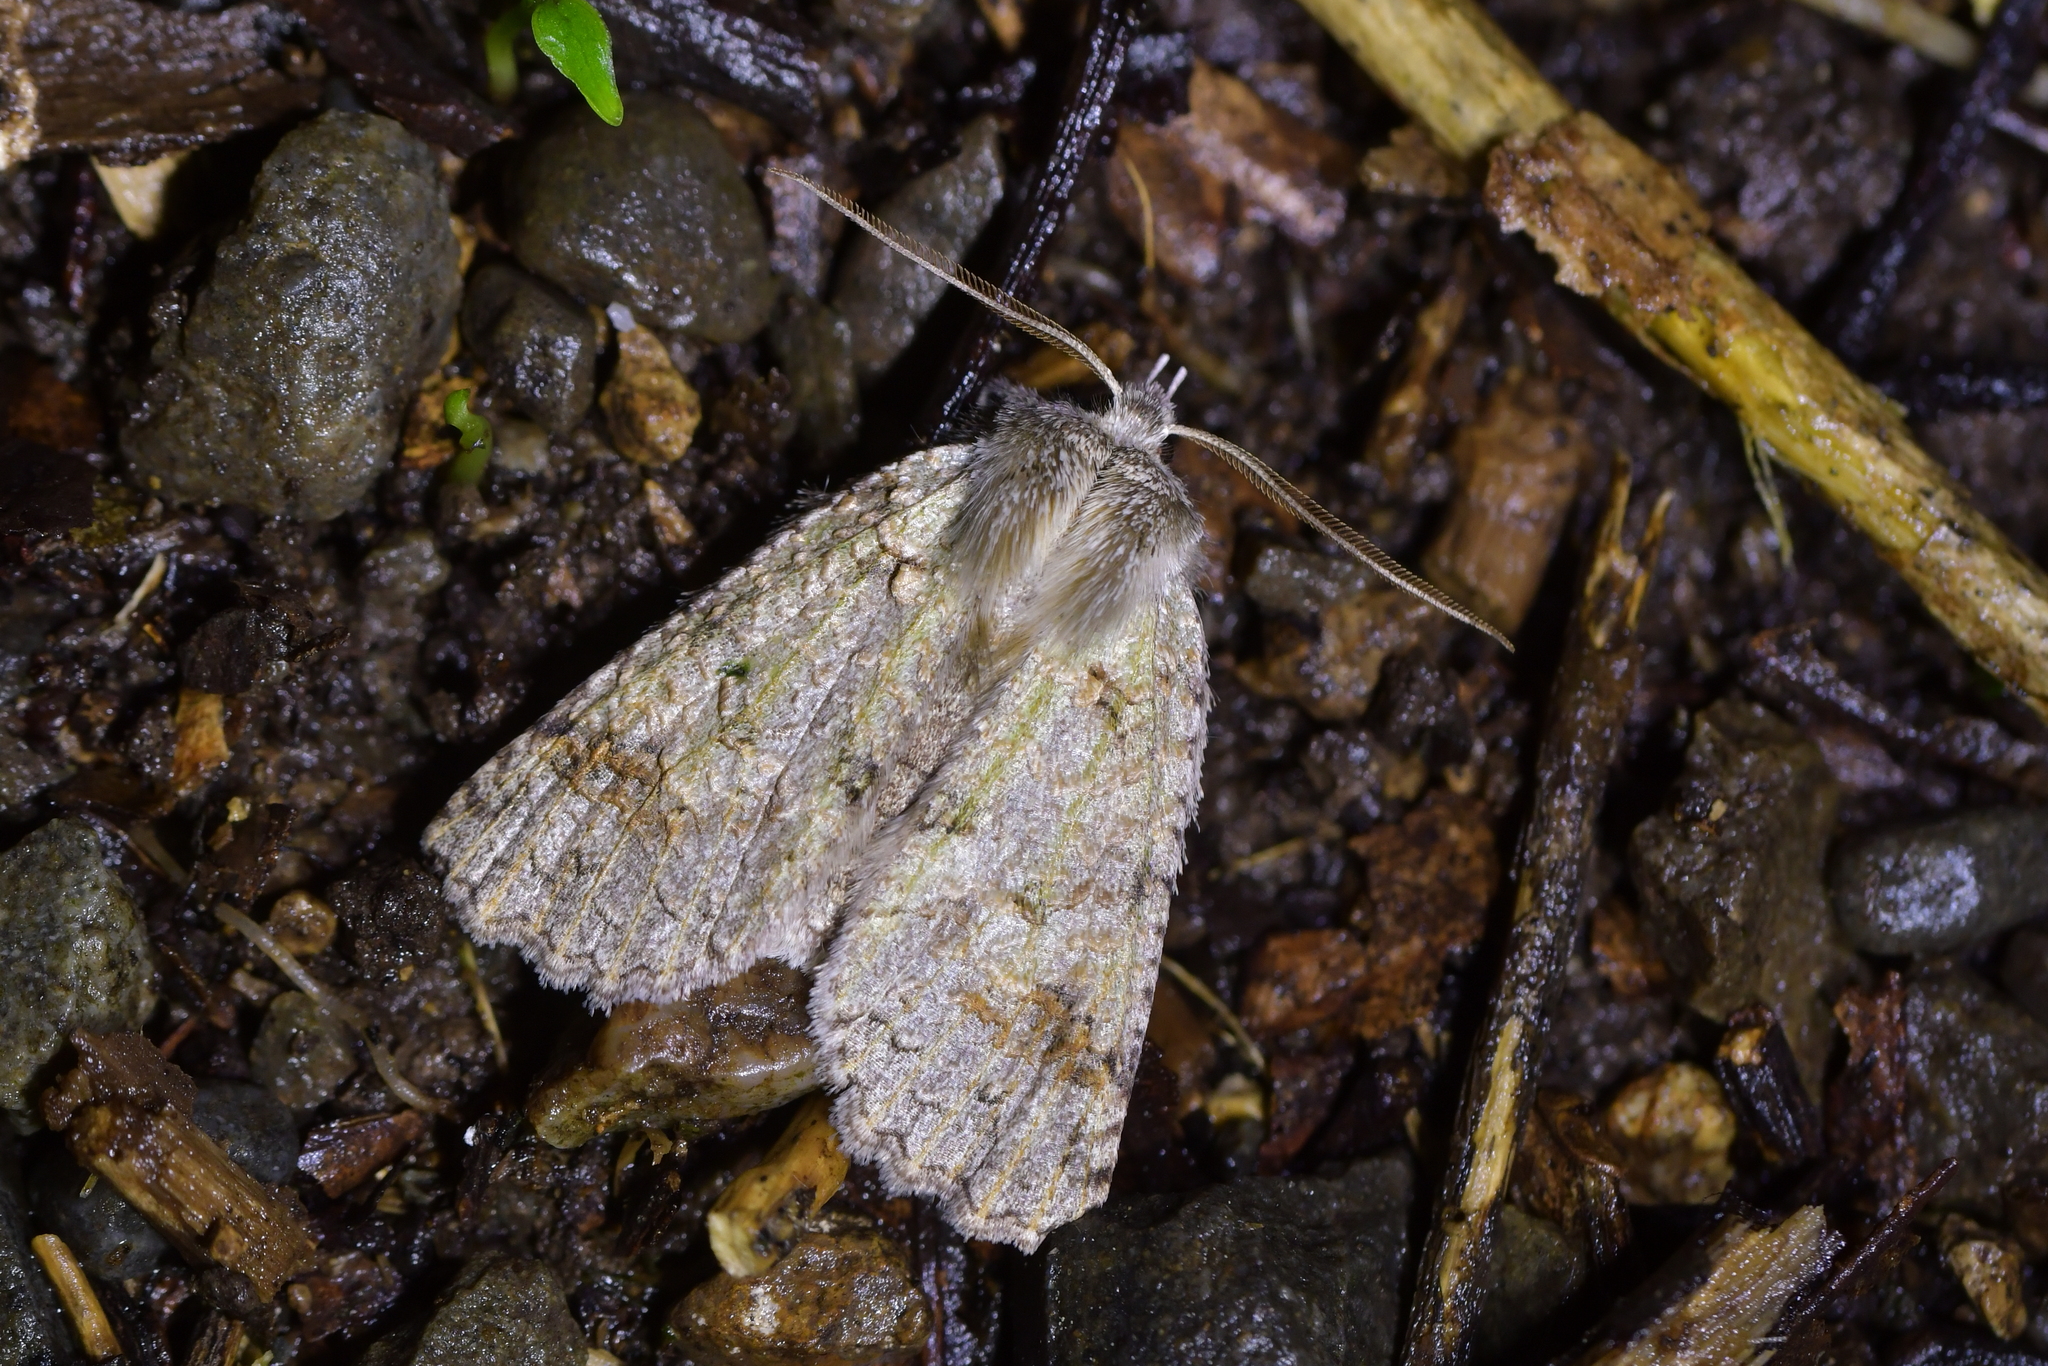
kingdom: Animalia
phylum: Arthropoda
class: Insecta
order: Lepidoptera
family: Geometridae
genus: Declana
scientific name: Declana floccosa
